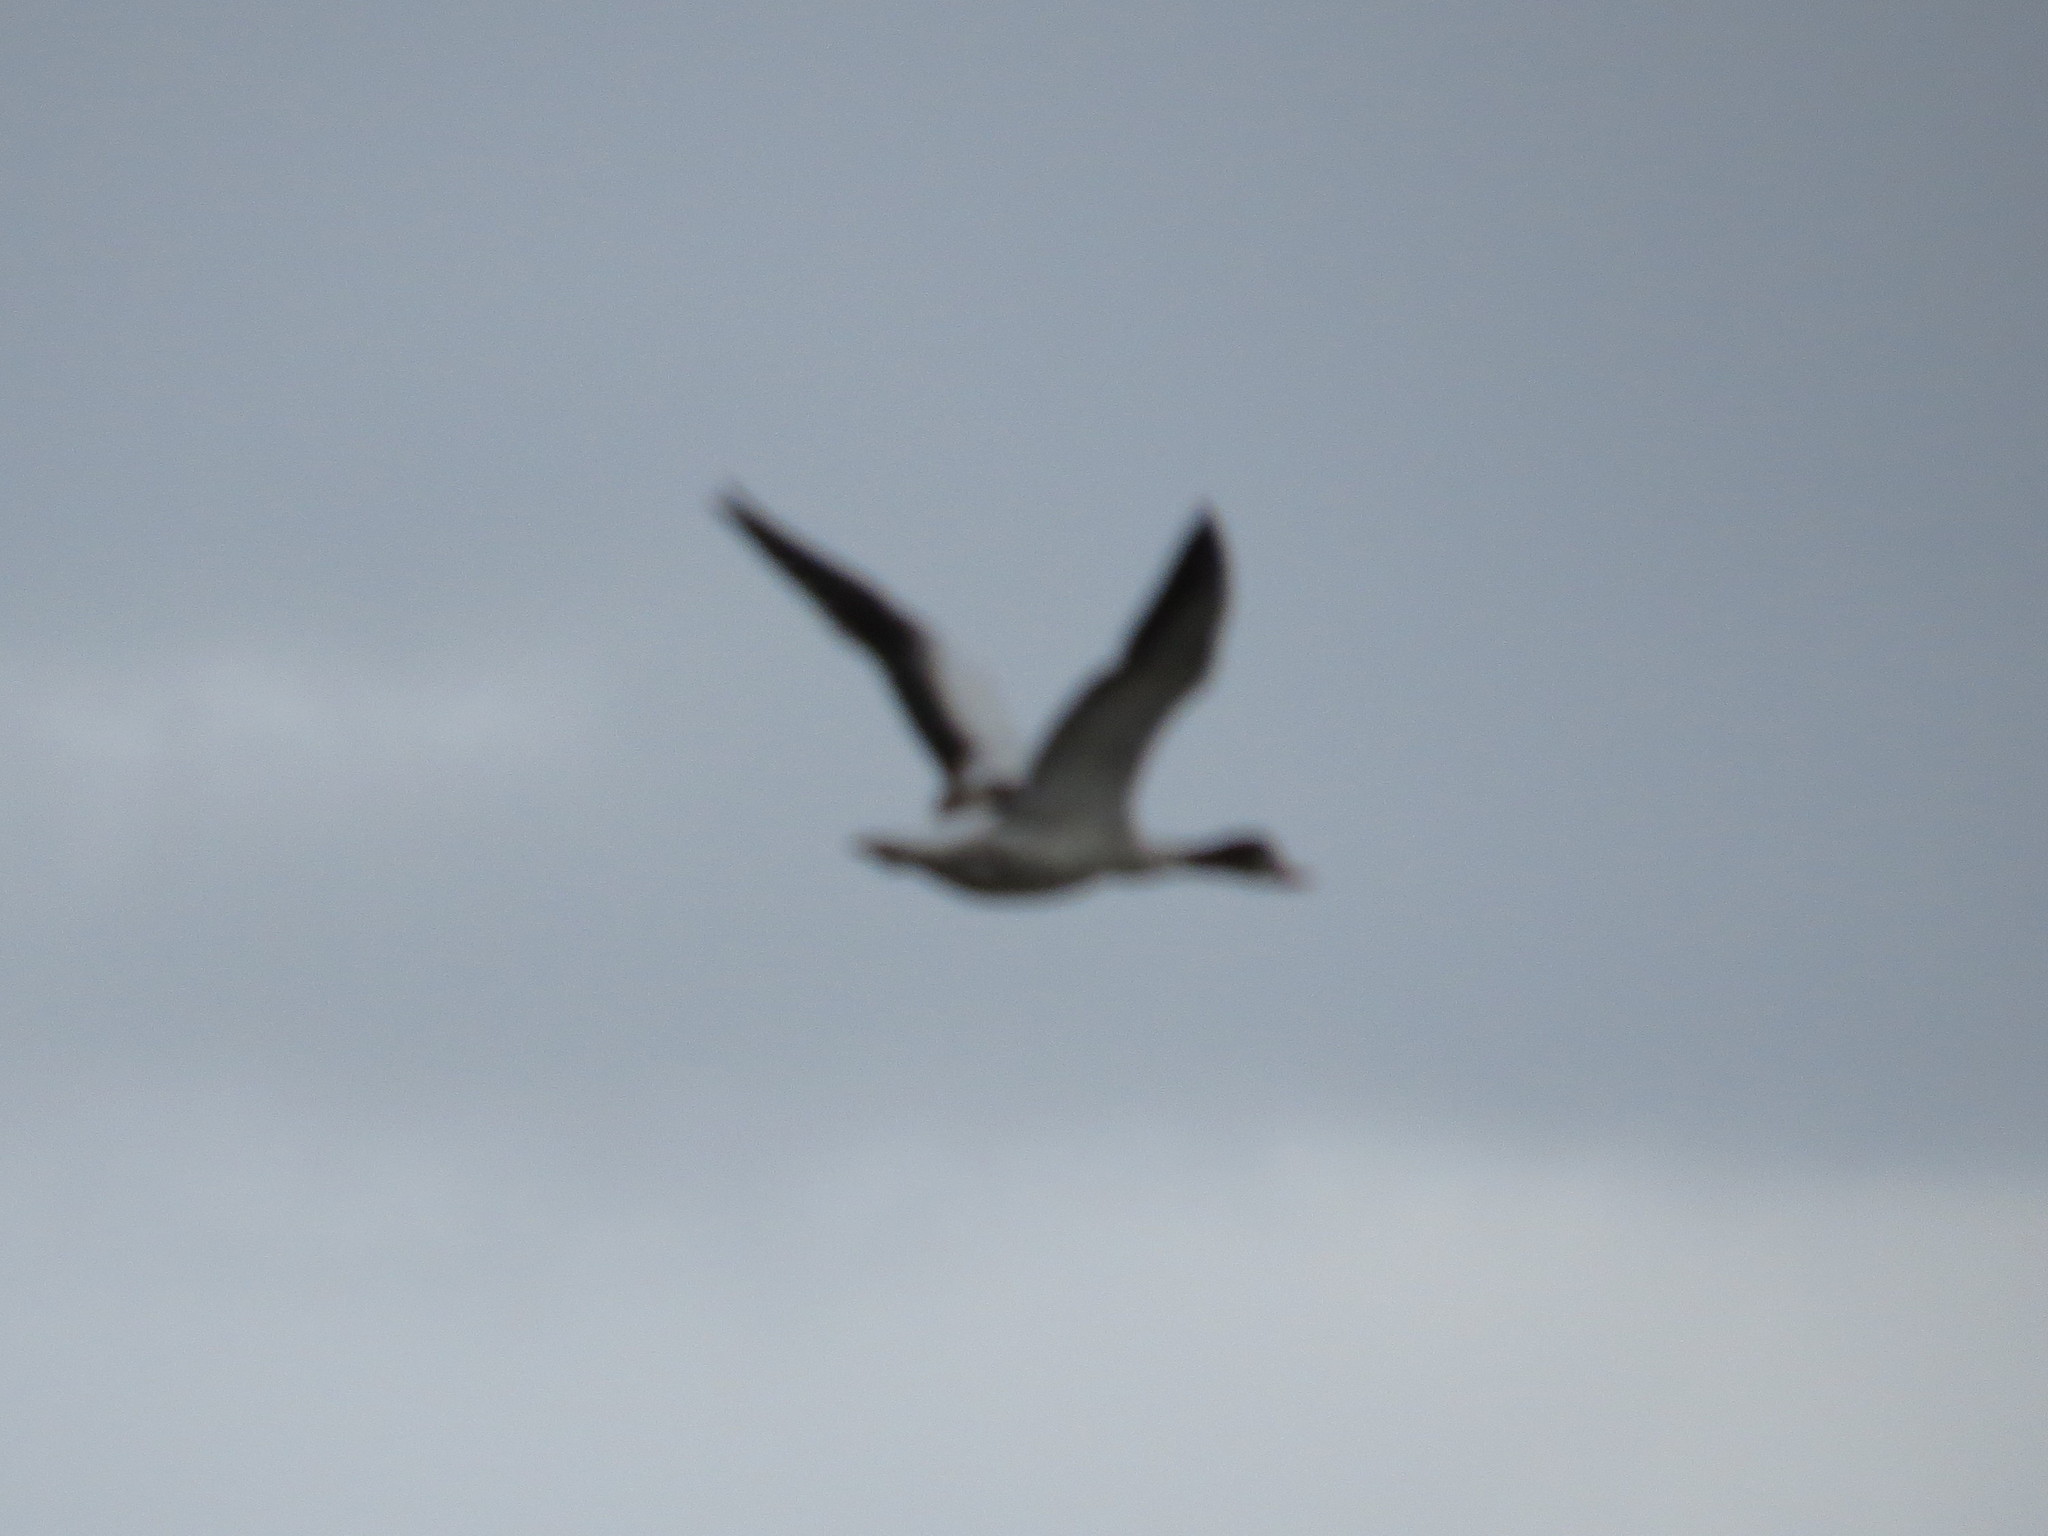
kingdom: Animalia
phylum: Chordata
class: Aves
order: Anseriformes
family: Anatidae
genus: Tadorna
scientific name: Tadorna tadorna
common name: Common shelduck
